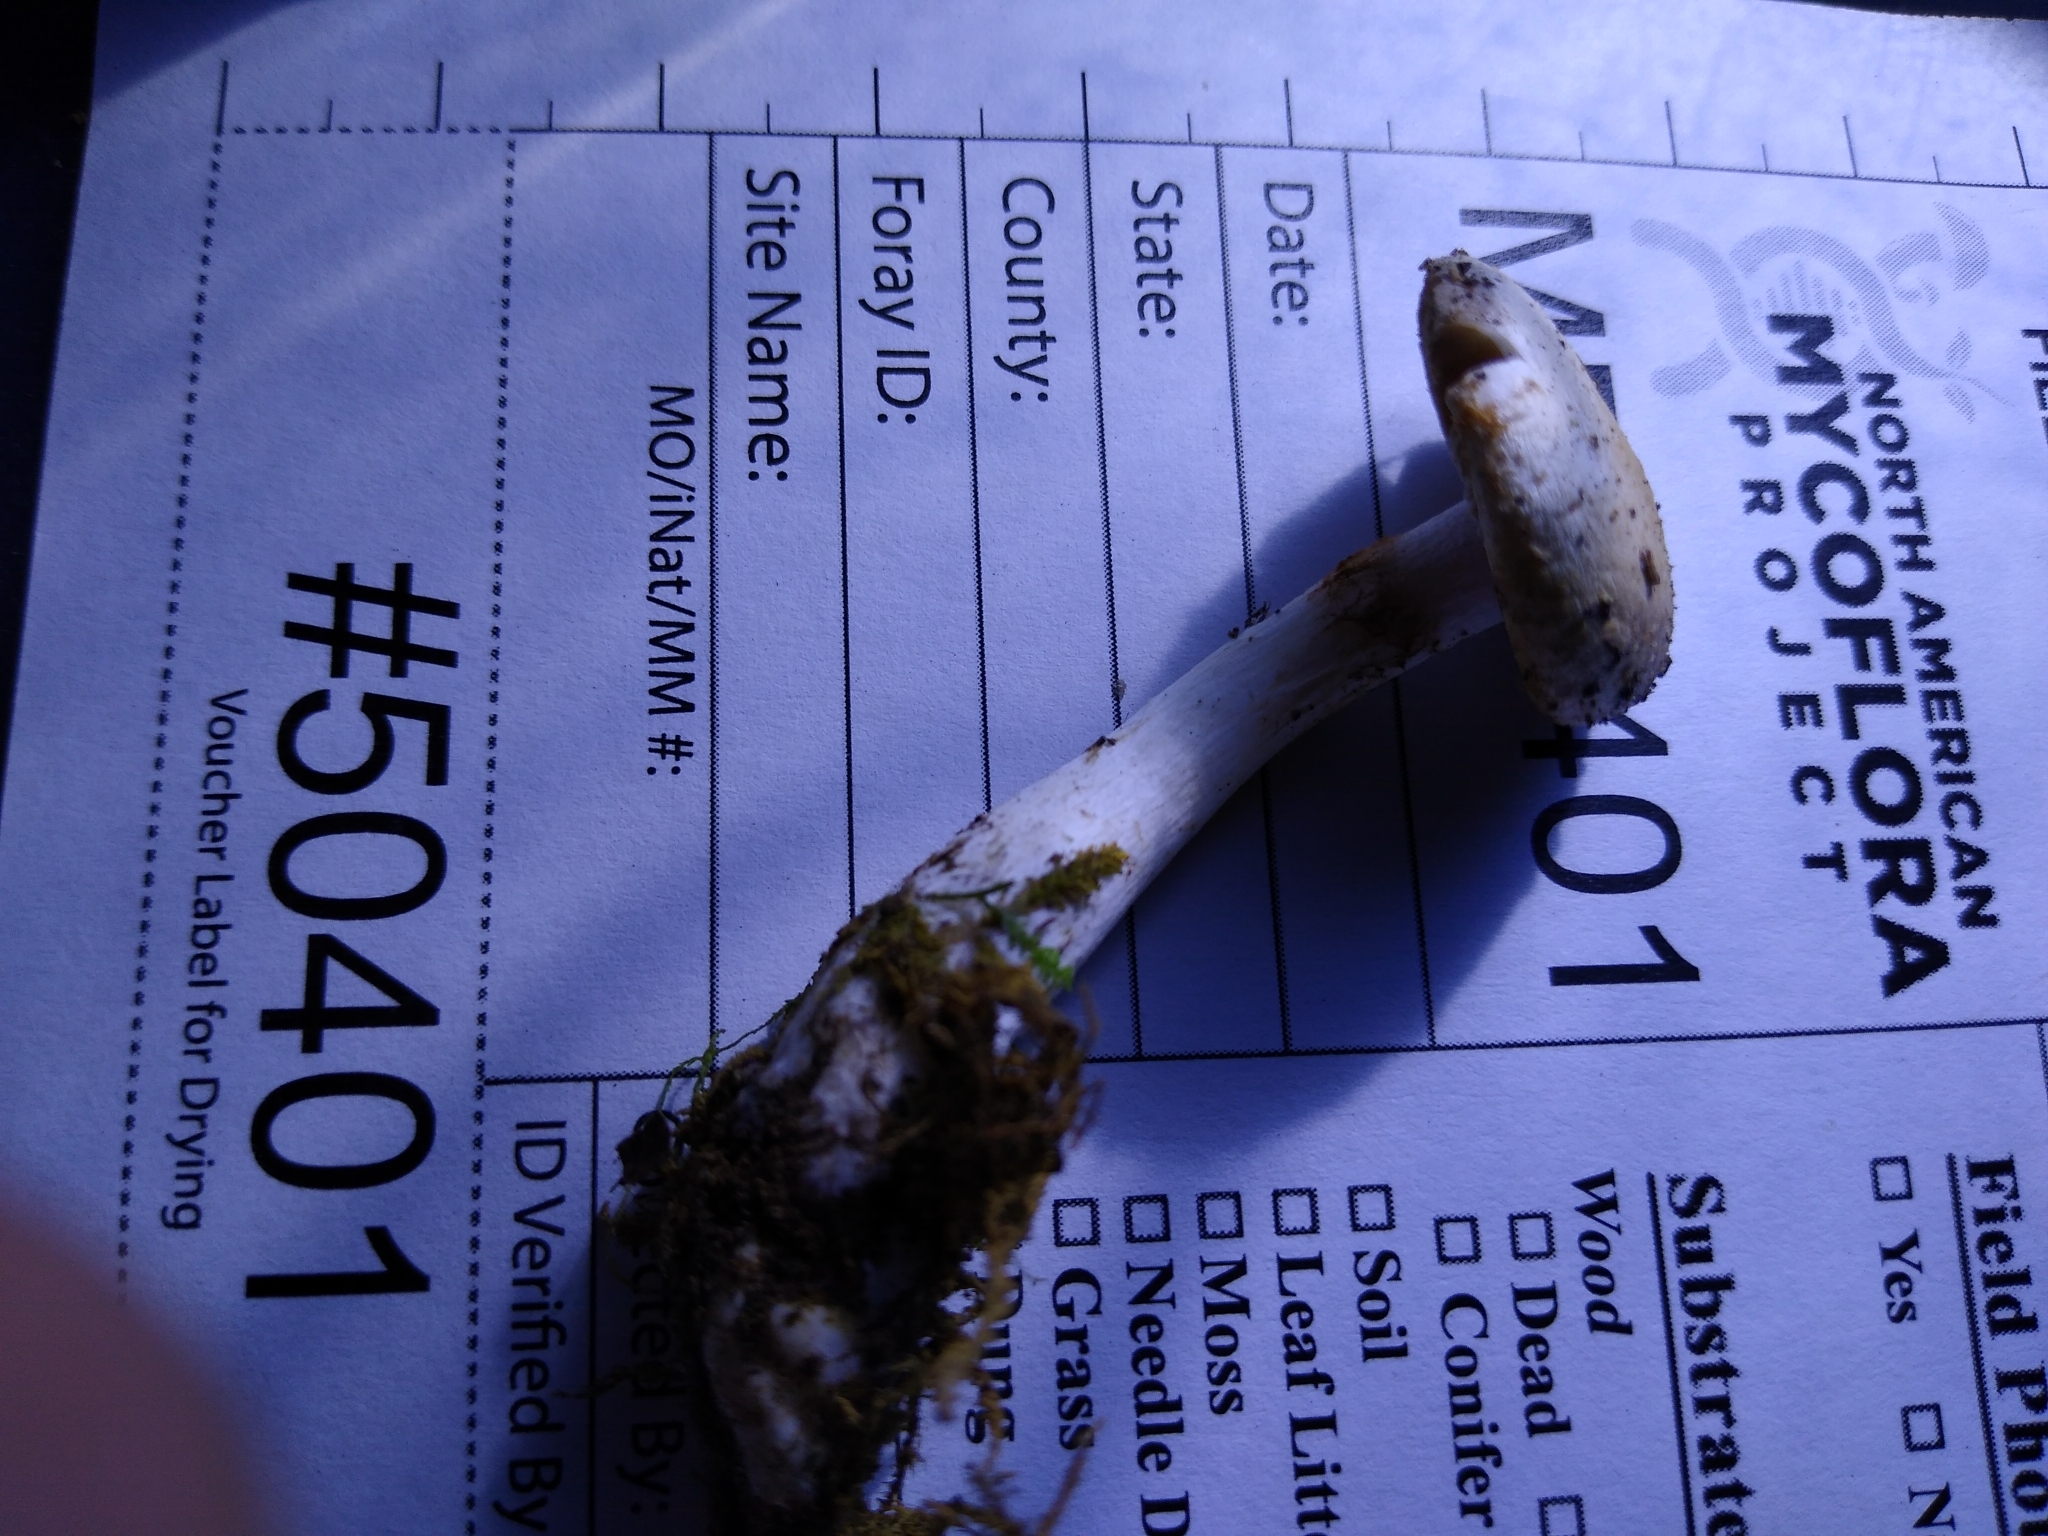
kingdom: Fungi
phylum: Basidiomycota
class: Agaricomycetes
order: Agaricales
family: Cortinariaceae
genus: Phlegmacium
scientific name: Phlegmacium acystidiosum
